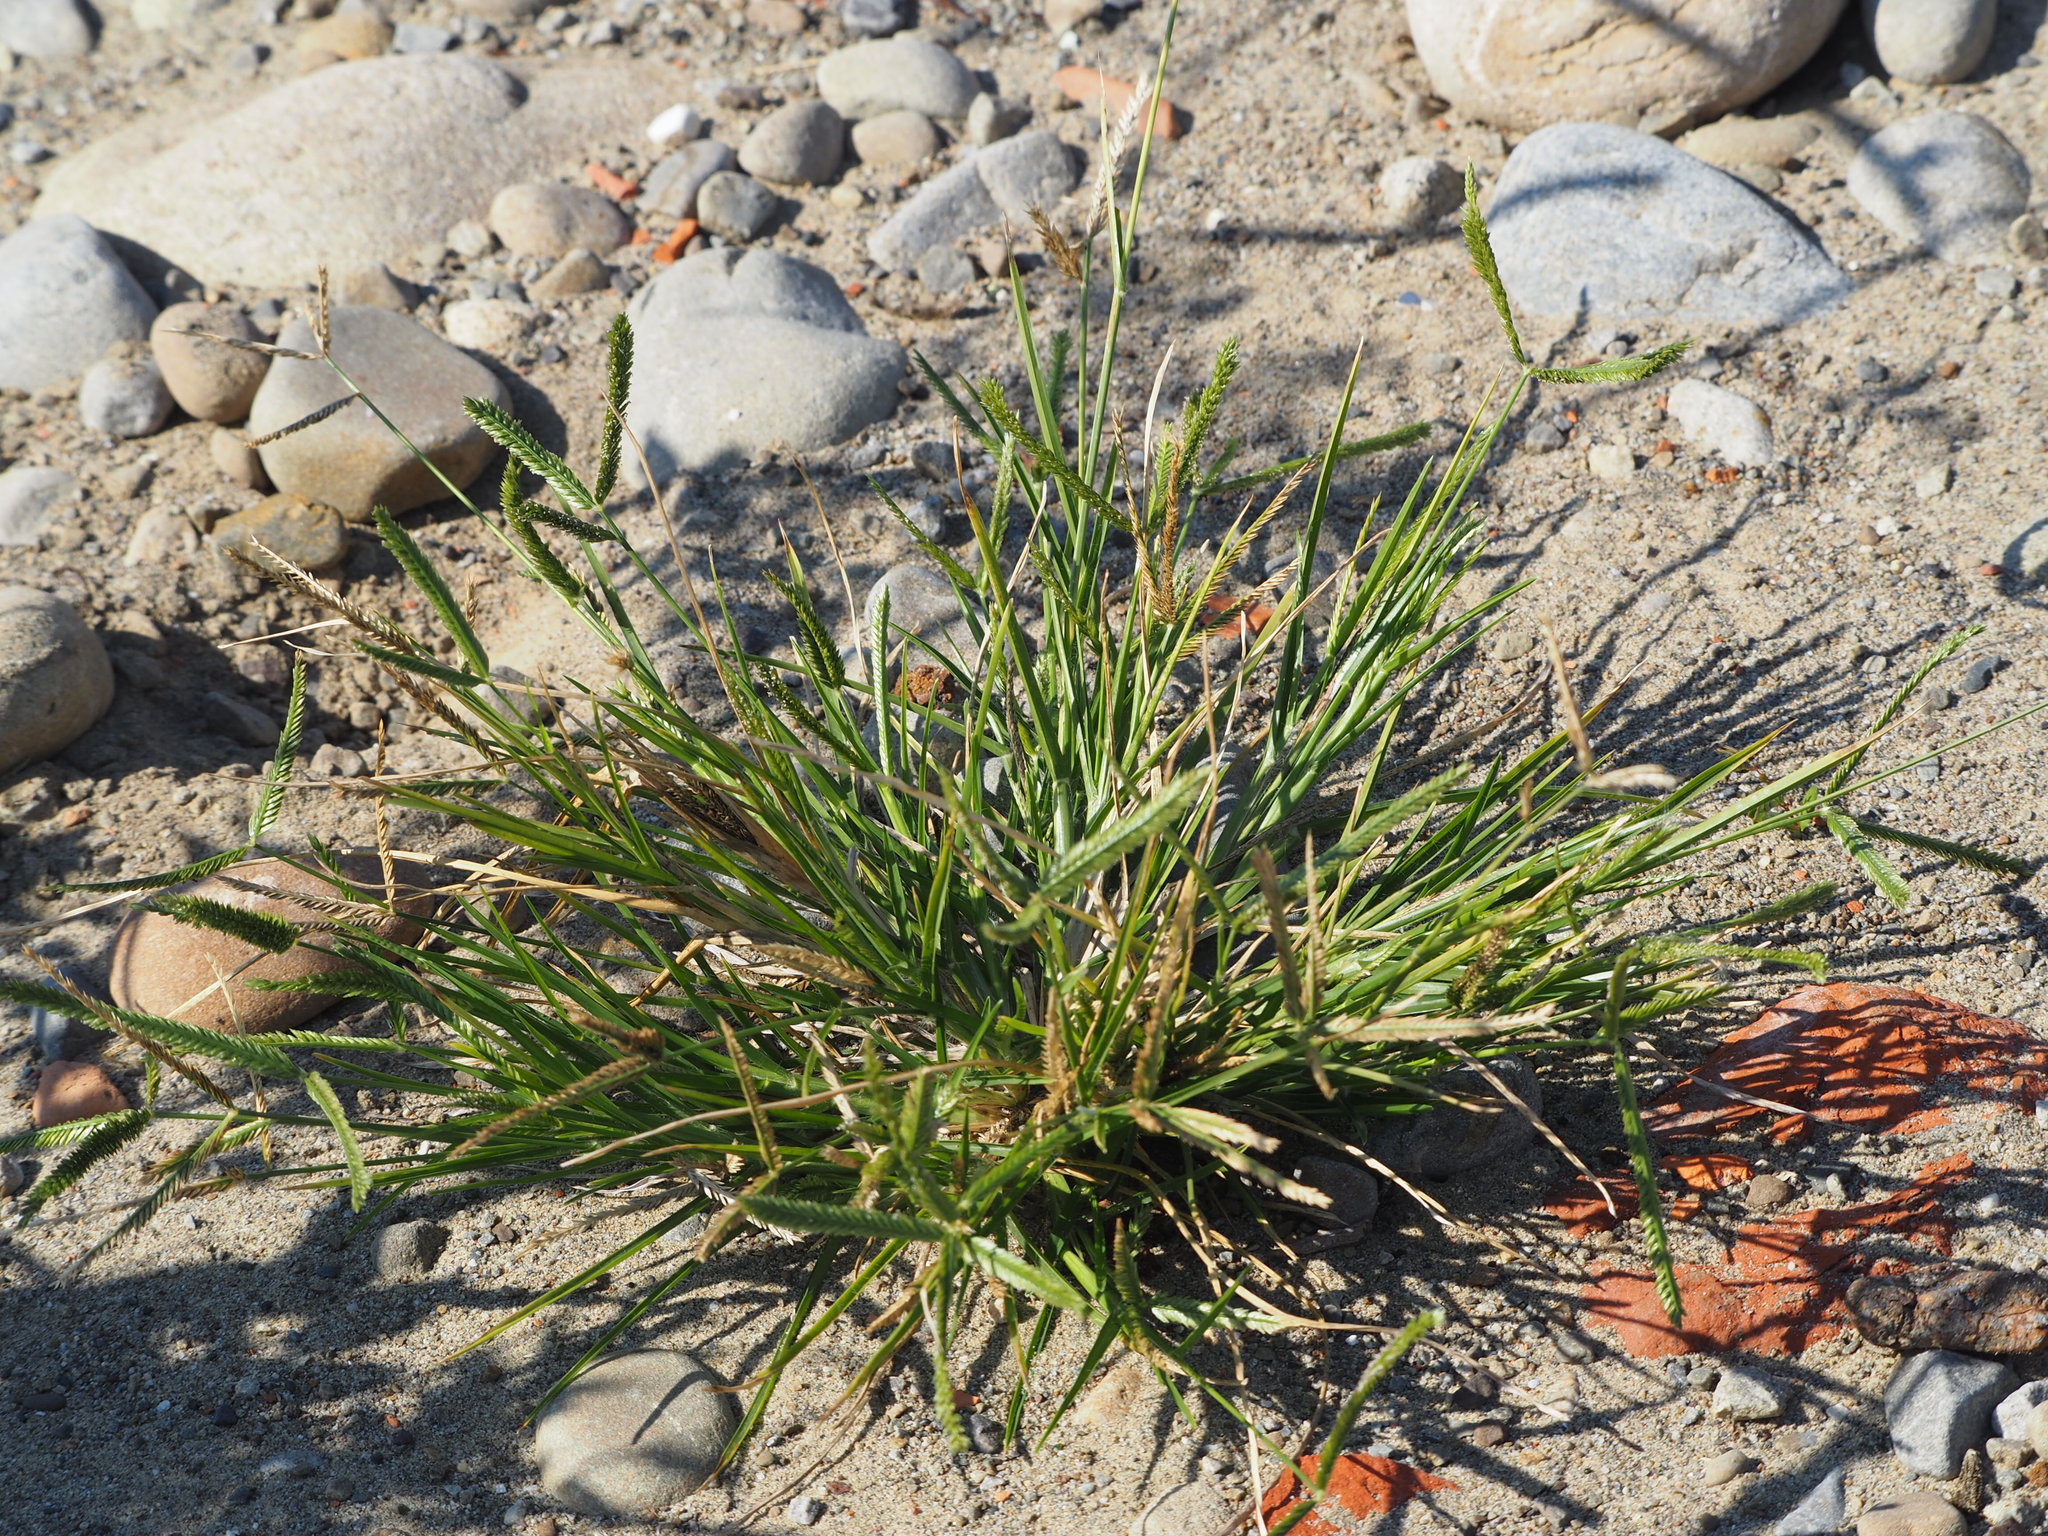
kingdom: Plantae
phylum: Tracheophyta
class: Liliopsida
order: Poales
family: Poaceae
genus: Eleusine
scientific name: Eleusine indica
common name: Yard-grass
